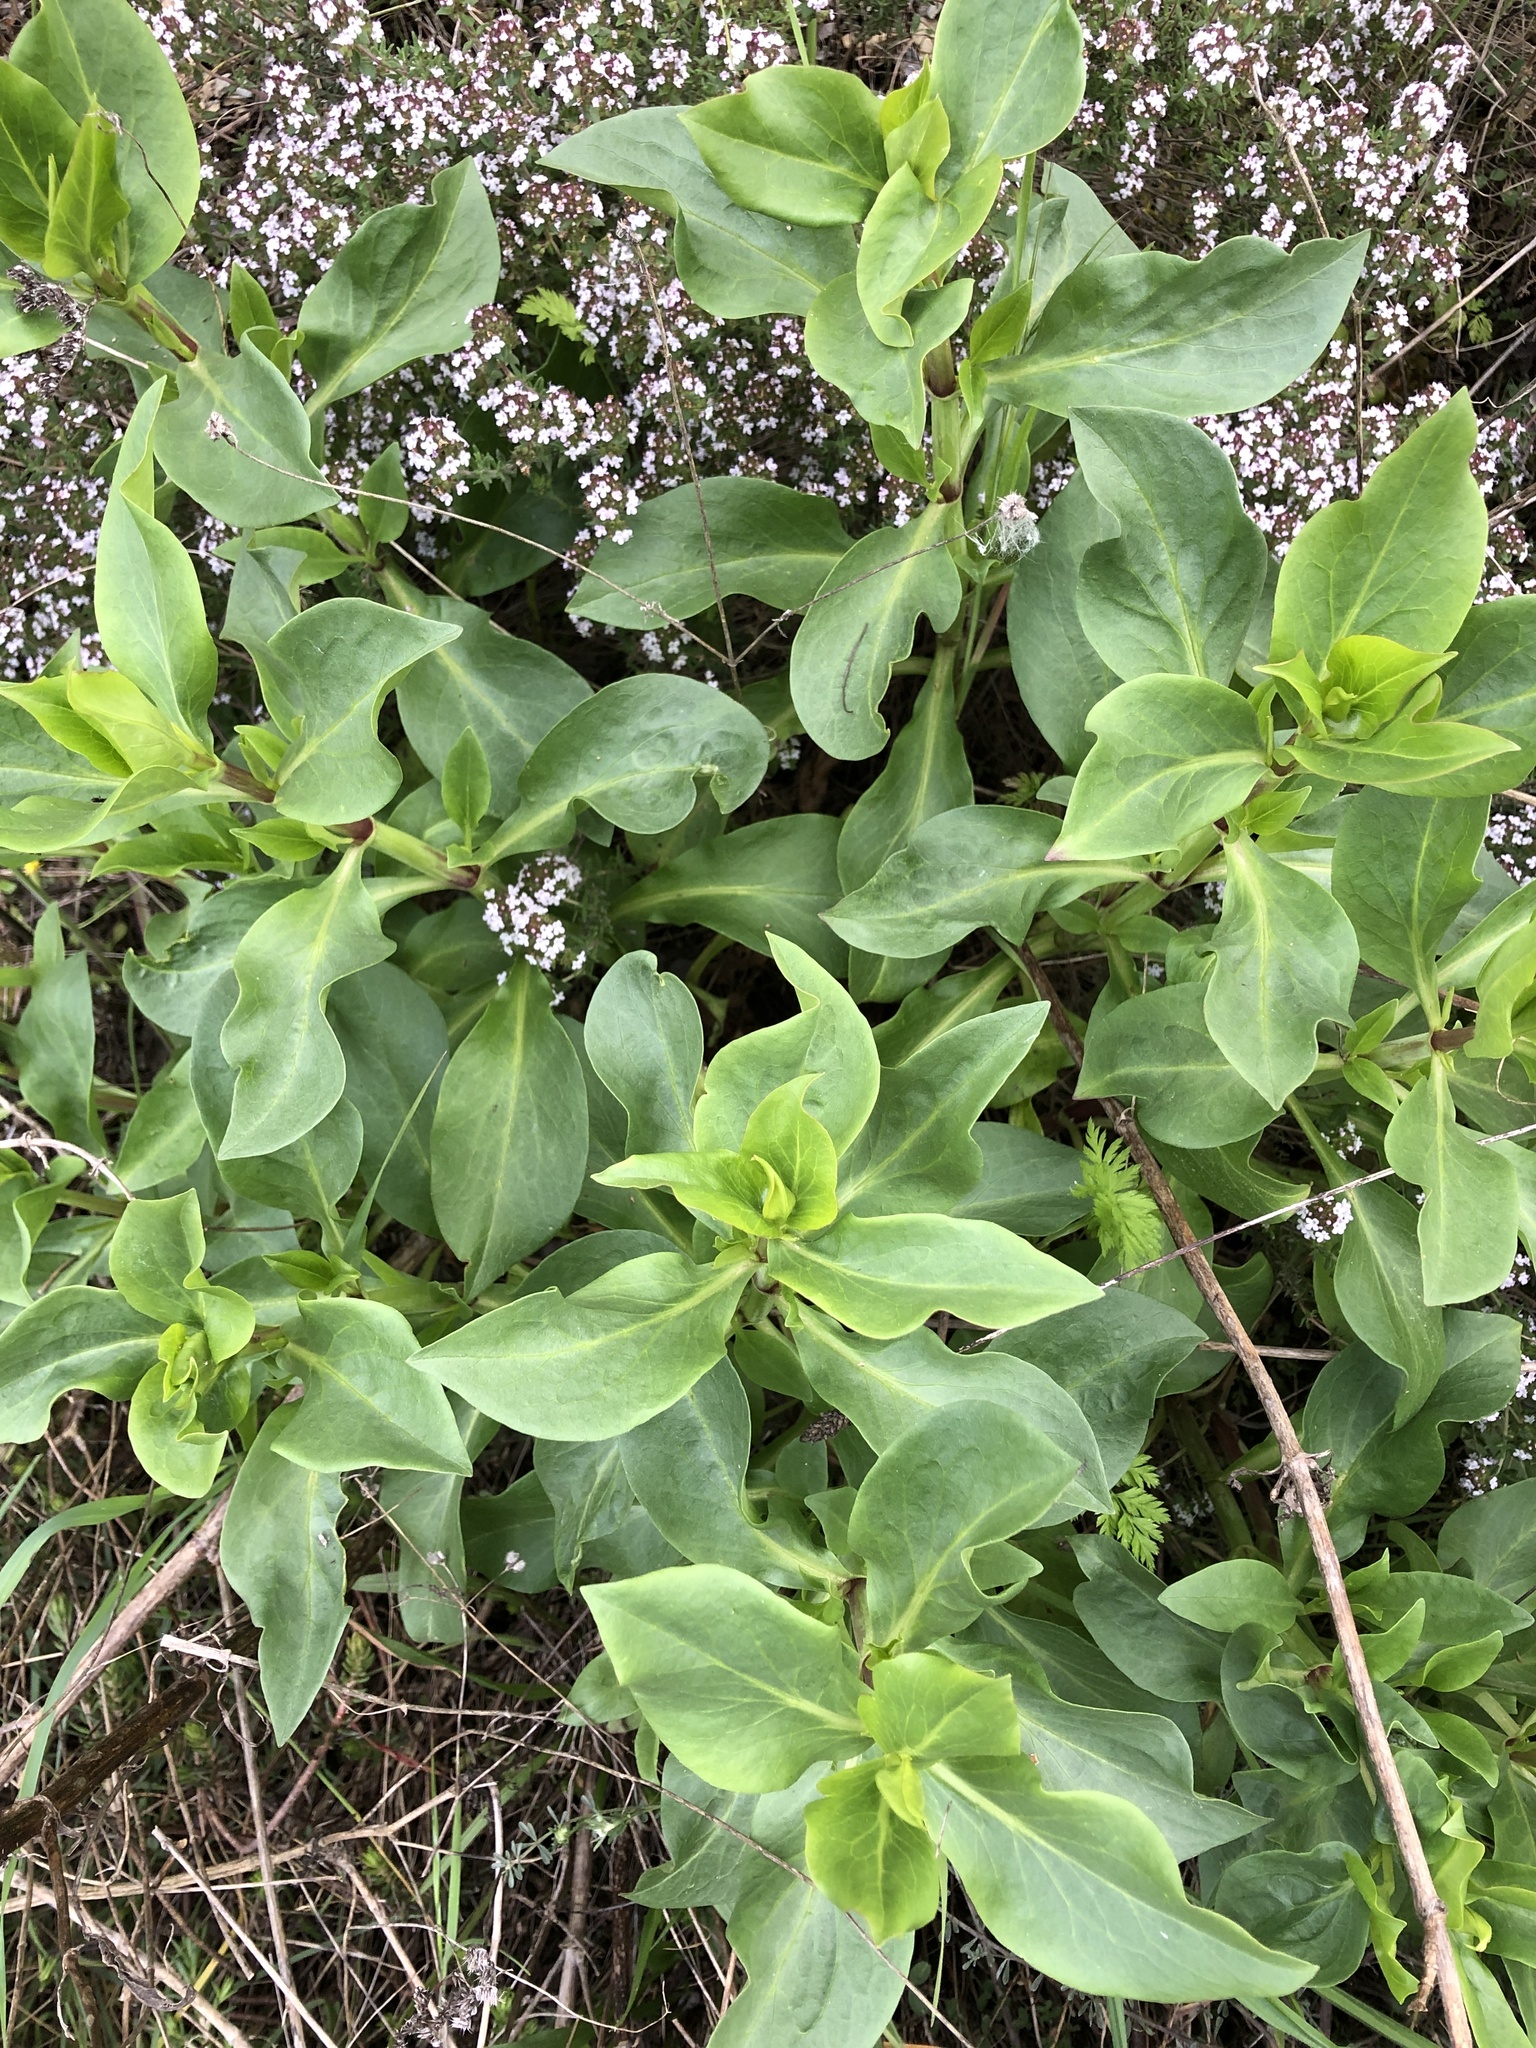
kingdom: Plantae
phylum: Tracheophyta
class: Magnoliopsida
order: Dipsacales
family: Caprifoliaceae
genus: Centranthus
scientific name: Centranthus ruber
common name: Red valerian
